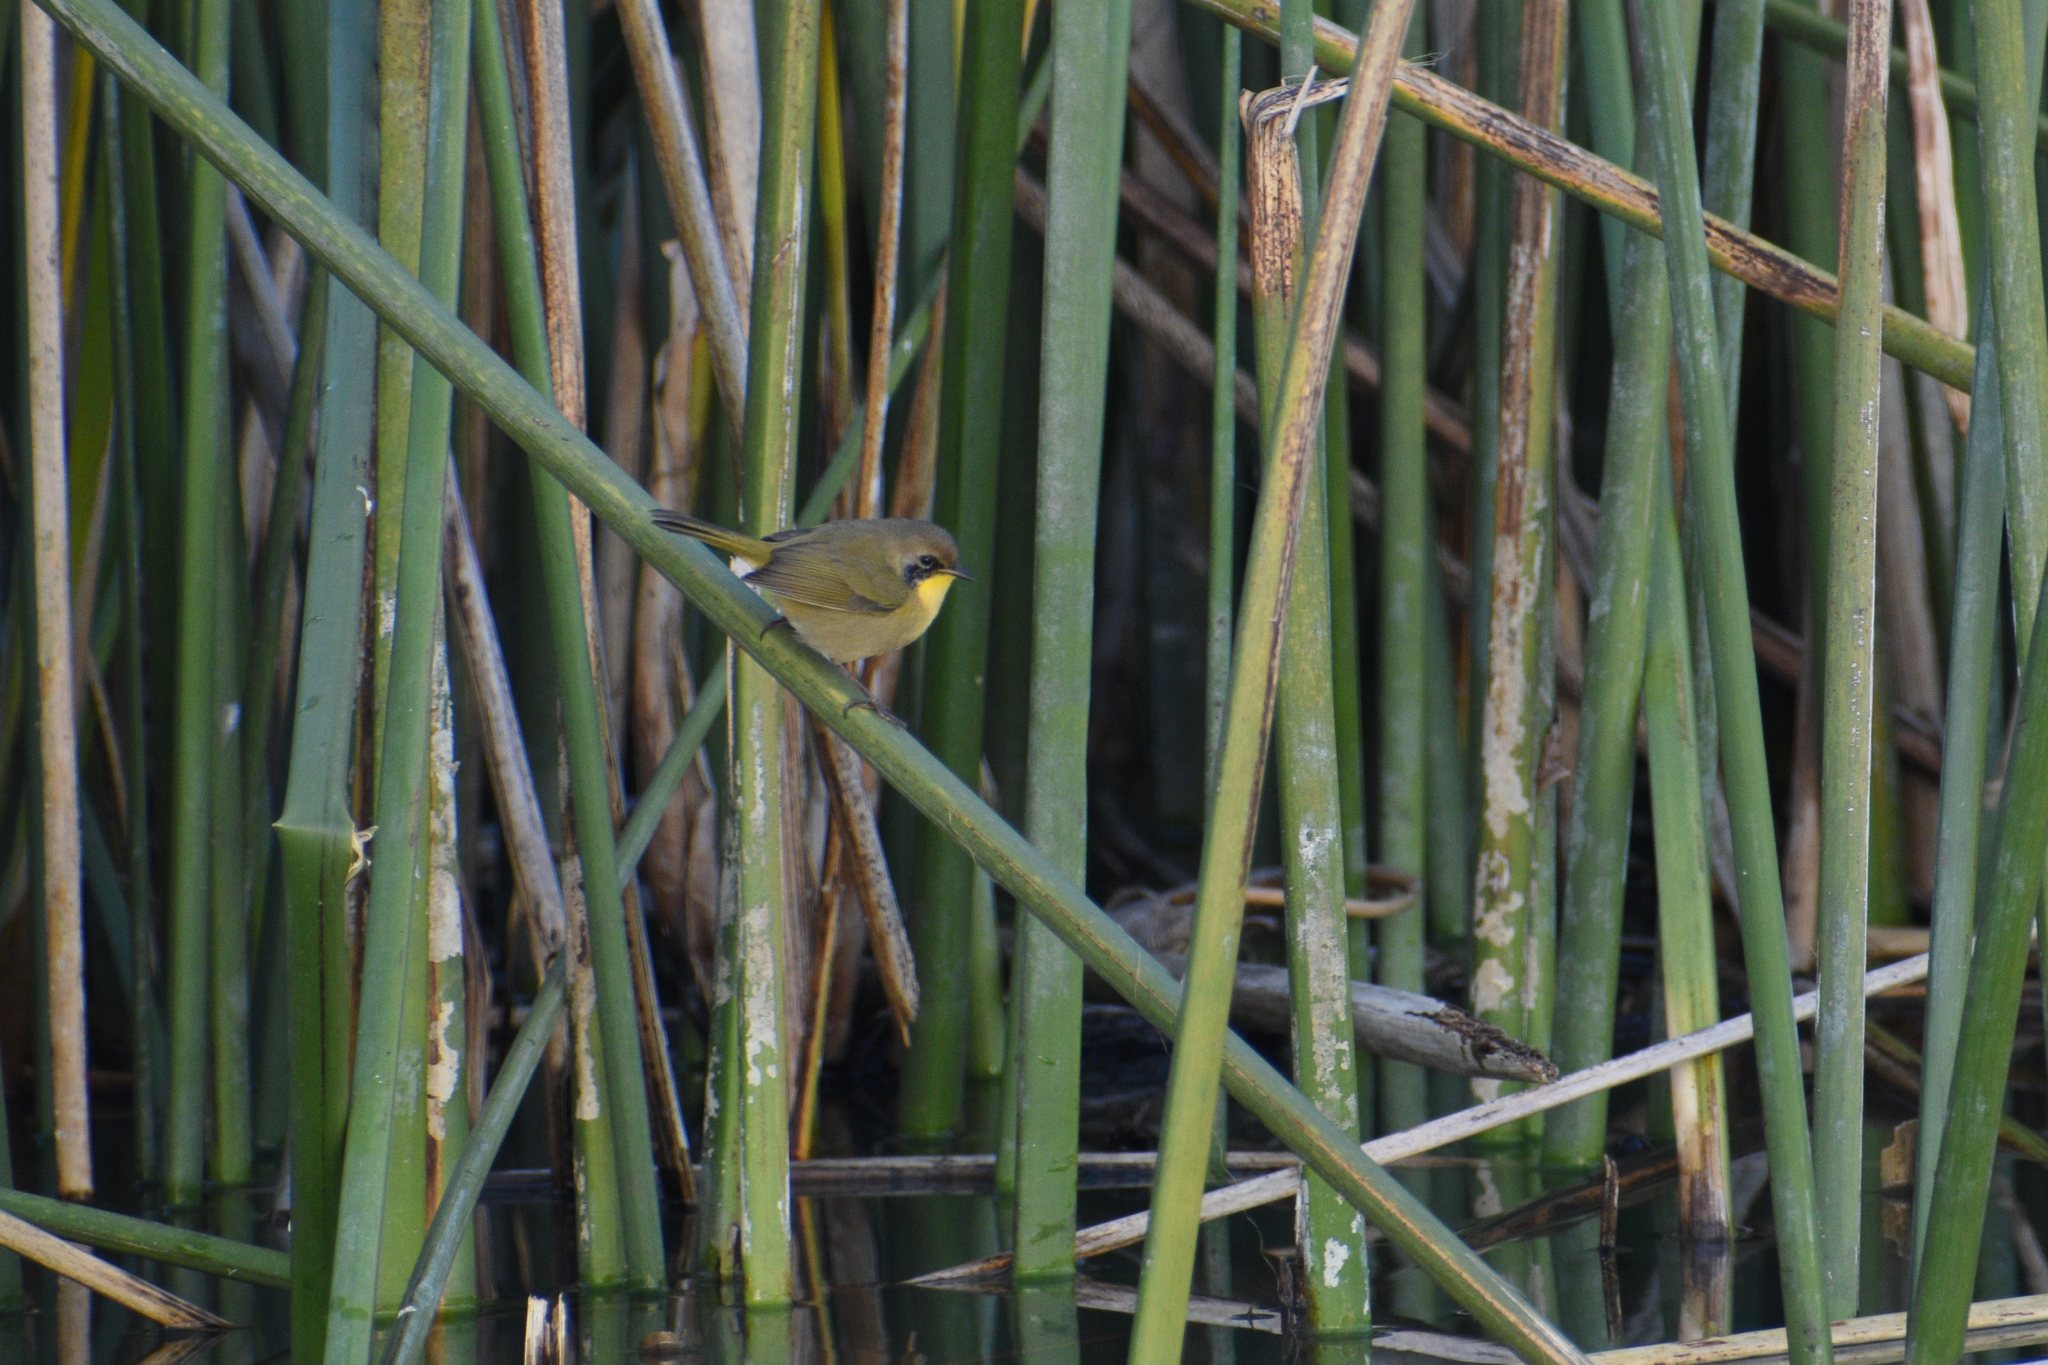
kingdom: Animalia
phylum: Chordata
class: Aves
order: Passeriformes
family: Parulidae
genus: Geothlypis
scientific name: Geothlypis trichas
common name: Common yellowthroat
